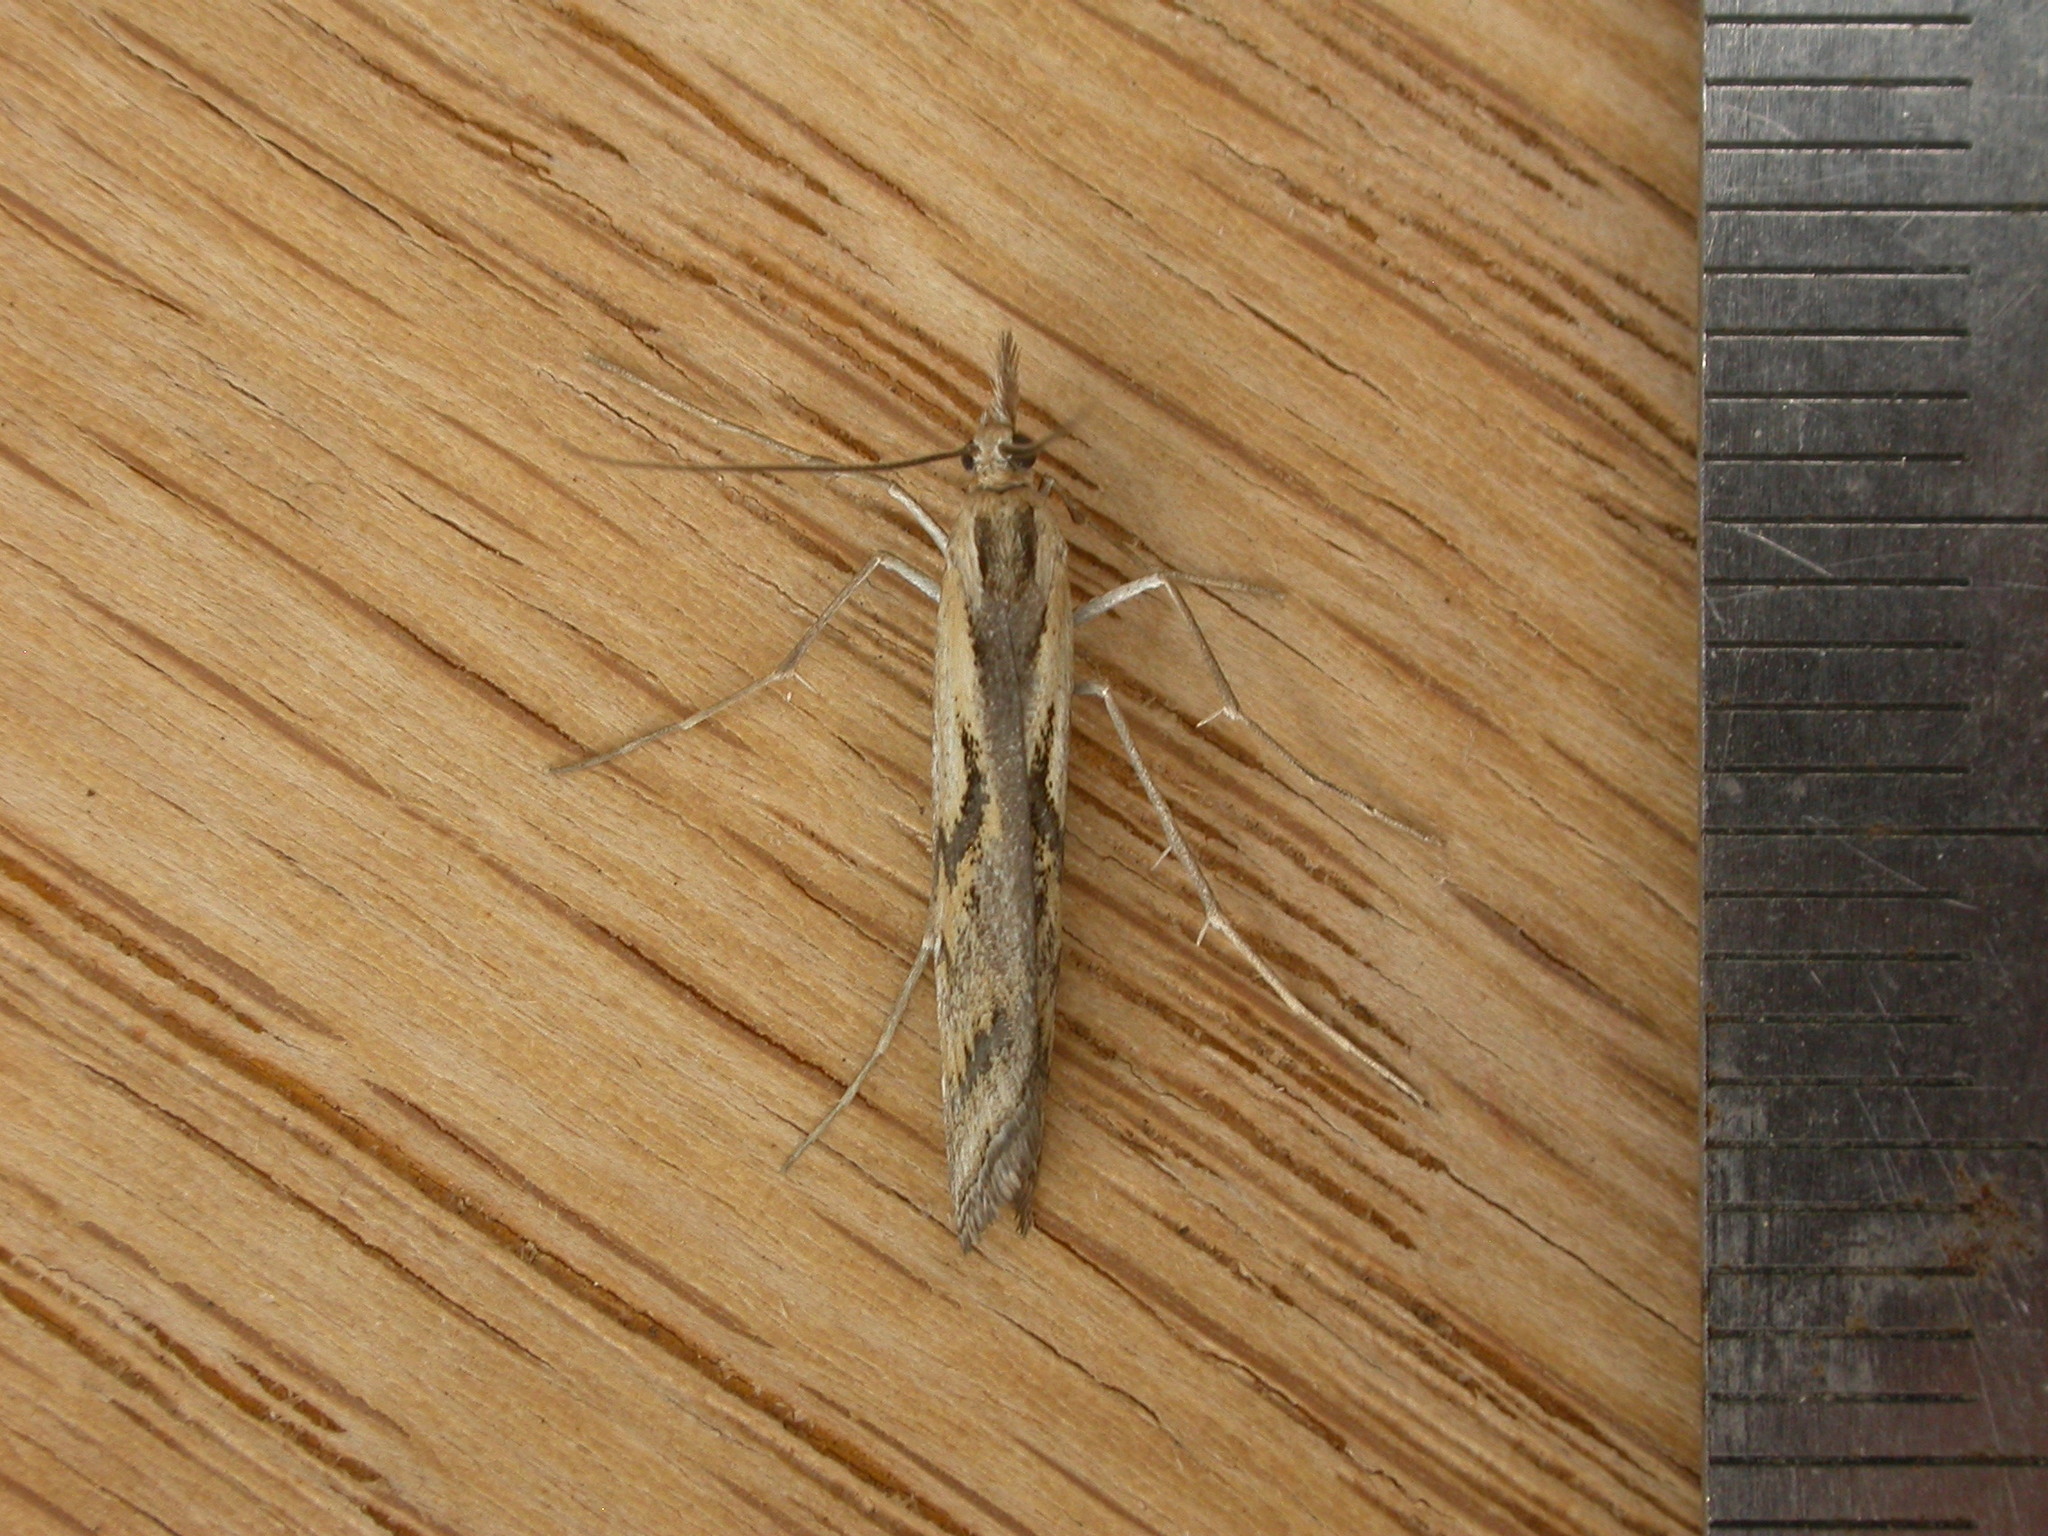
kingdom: Animalia
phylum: Arthropoda
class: Insecta
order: Lepidoptera
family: Crambidae
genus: Hednota
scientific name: Hednota pedionoma
